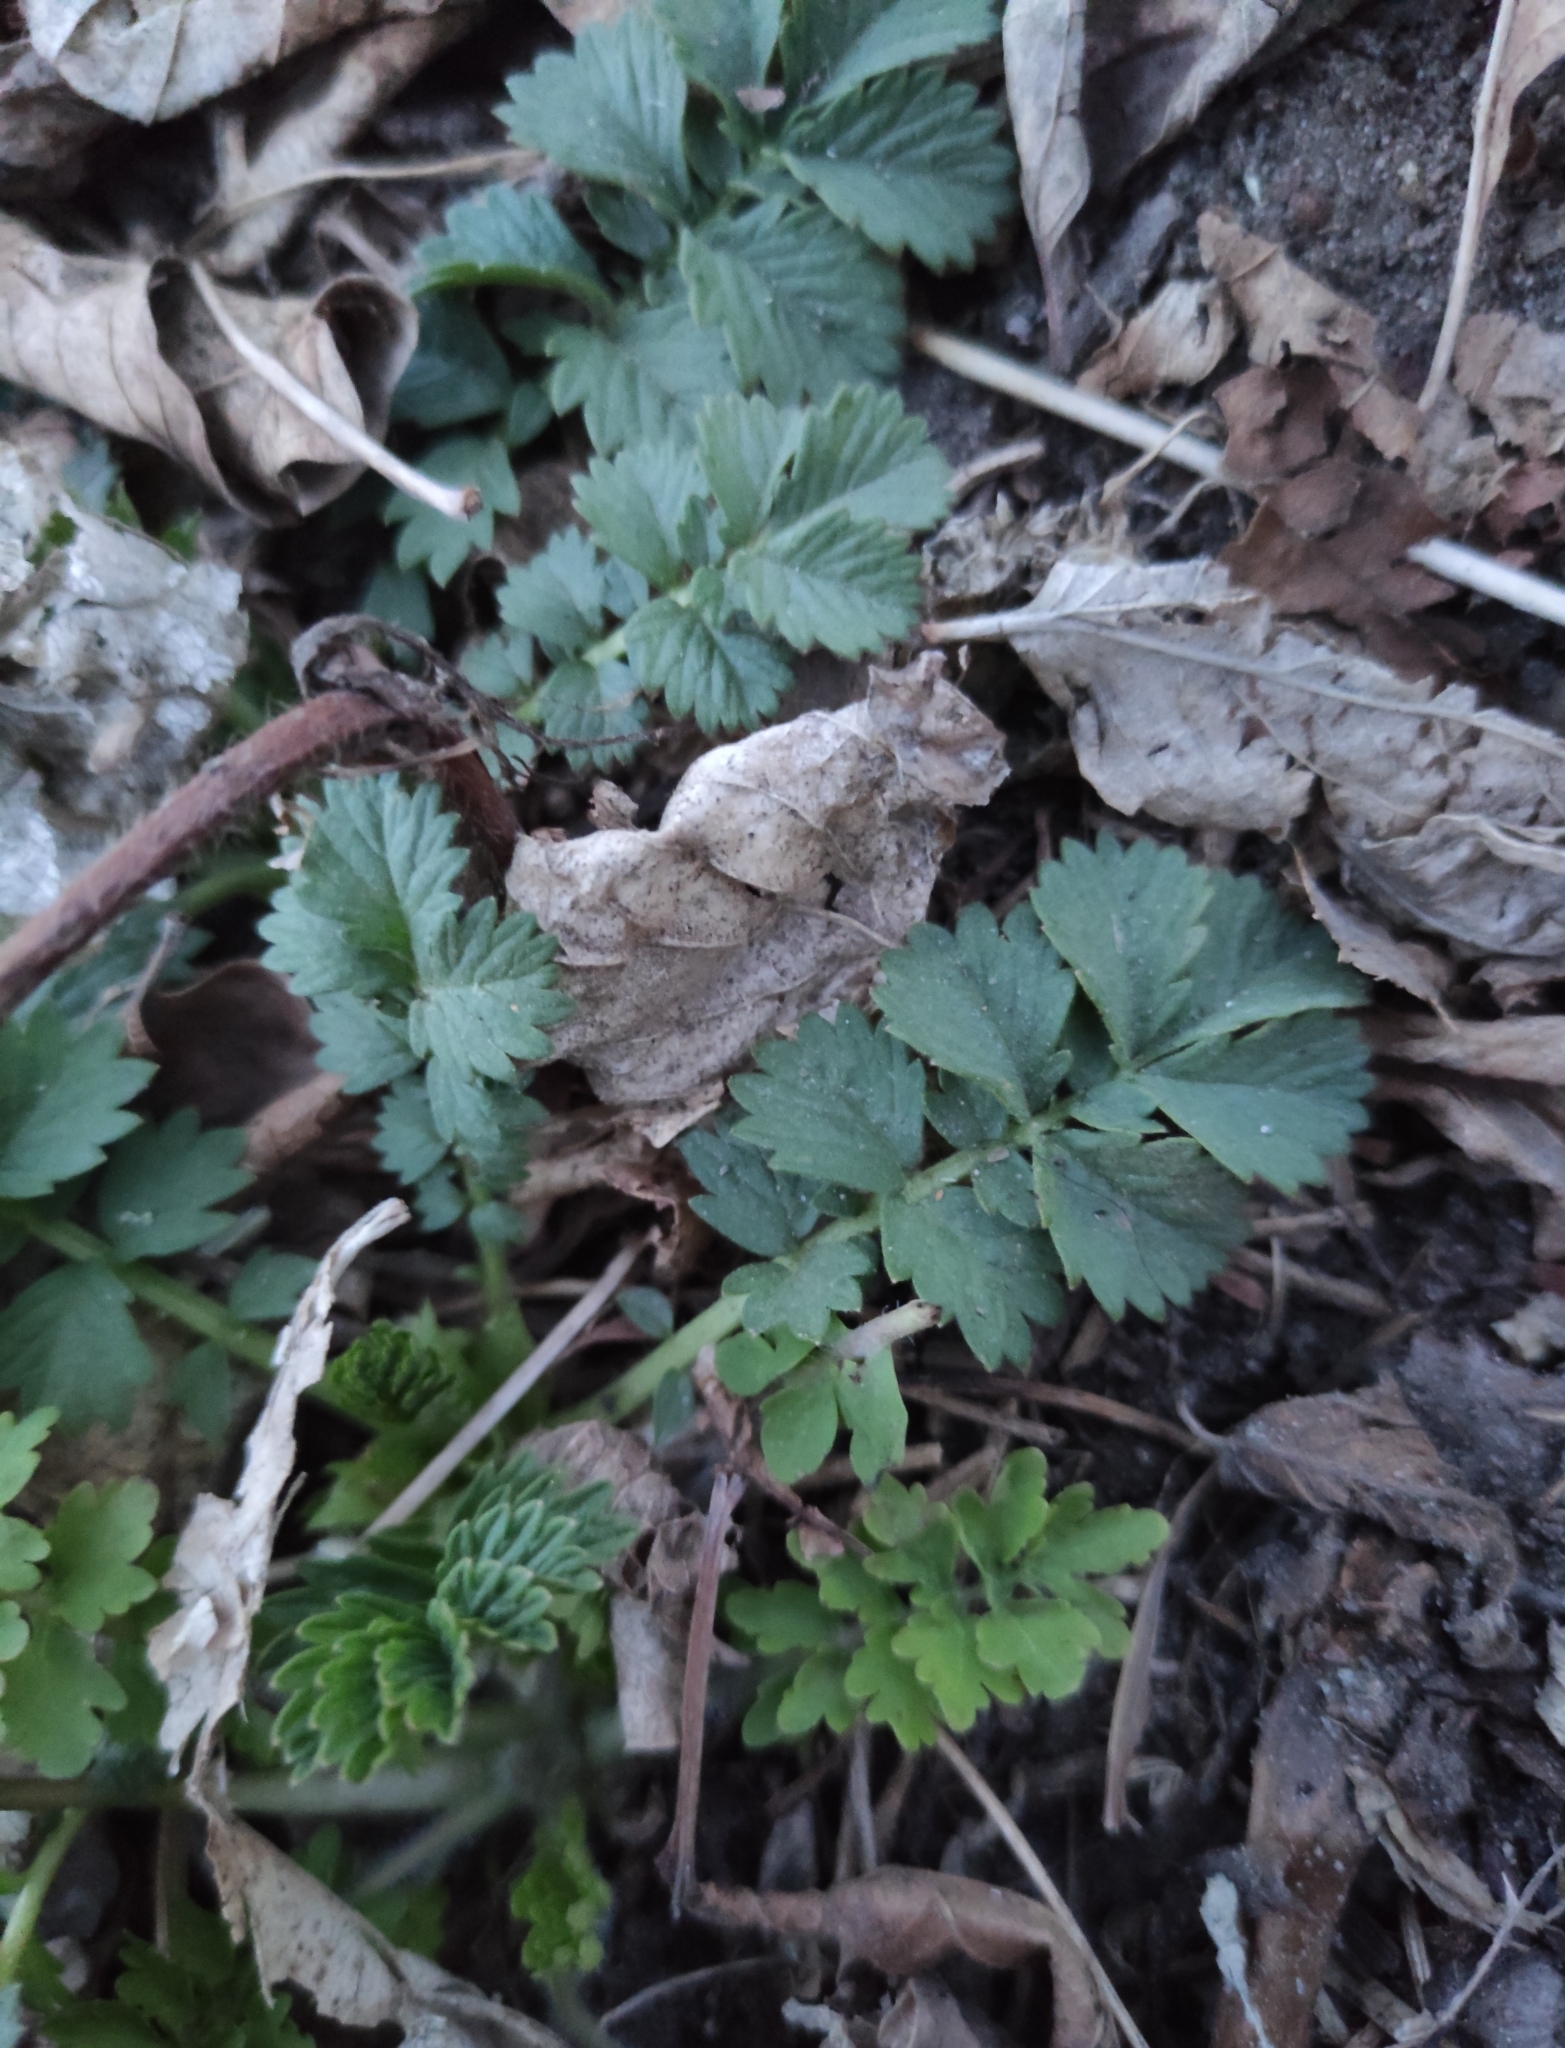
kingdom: Plantae
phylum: Tracheophyta
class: Magnoliopsida
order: Rosales
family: Rosaceae
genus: Agrimonia
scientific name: Agrimonia pilosa
